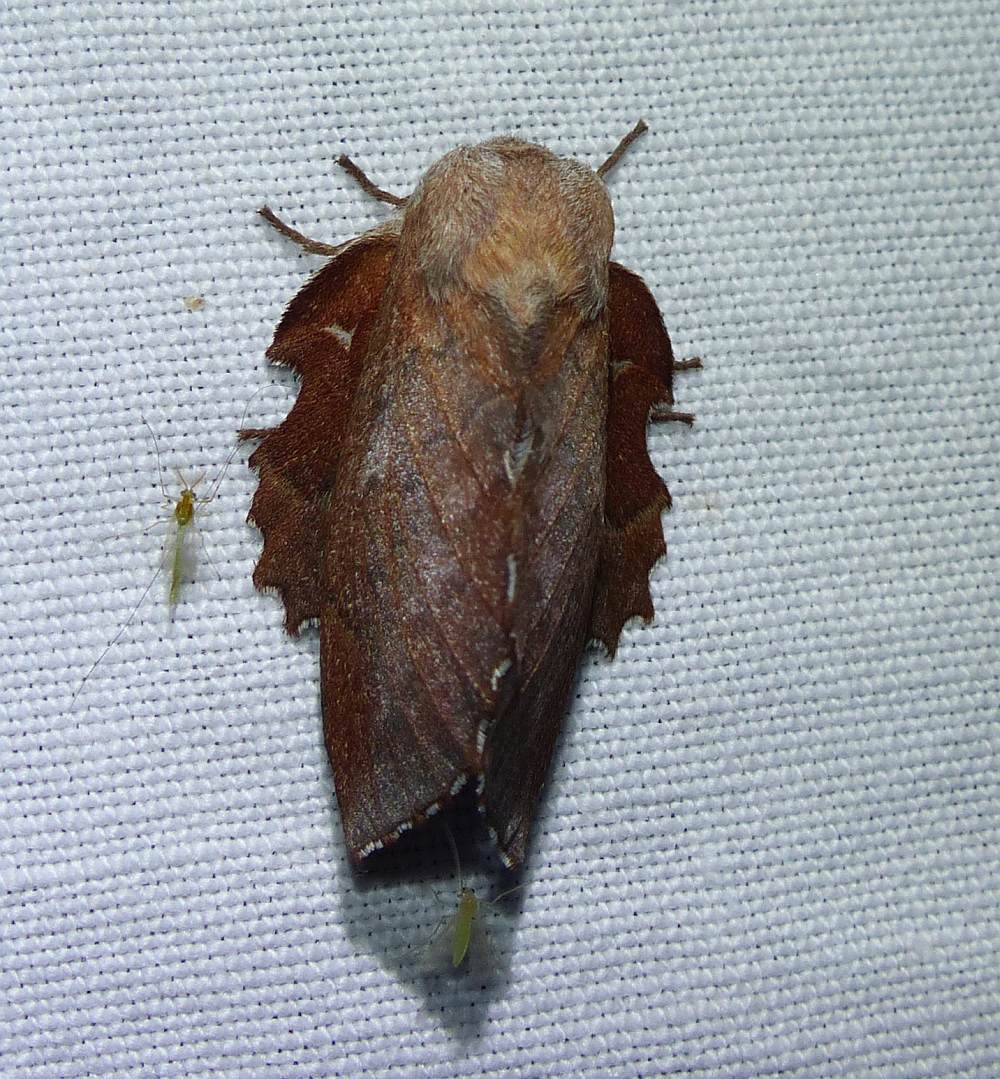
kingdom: Animalia
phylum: Arthropoda
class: Insecta
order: Lepidoptera
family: Lasiocampidae
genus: Phyllodesma
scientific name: Phyllodesma americana
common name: American lappet moth
